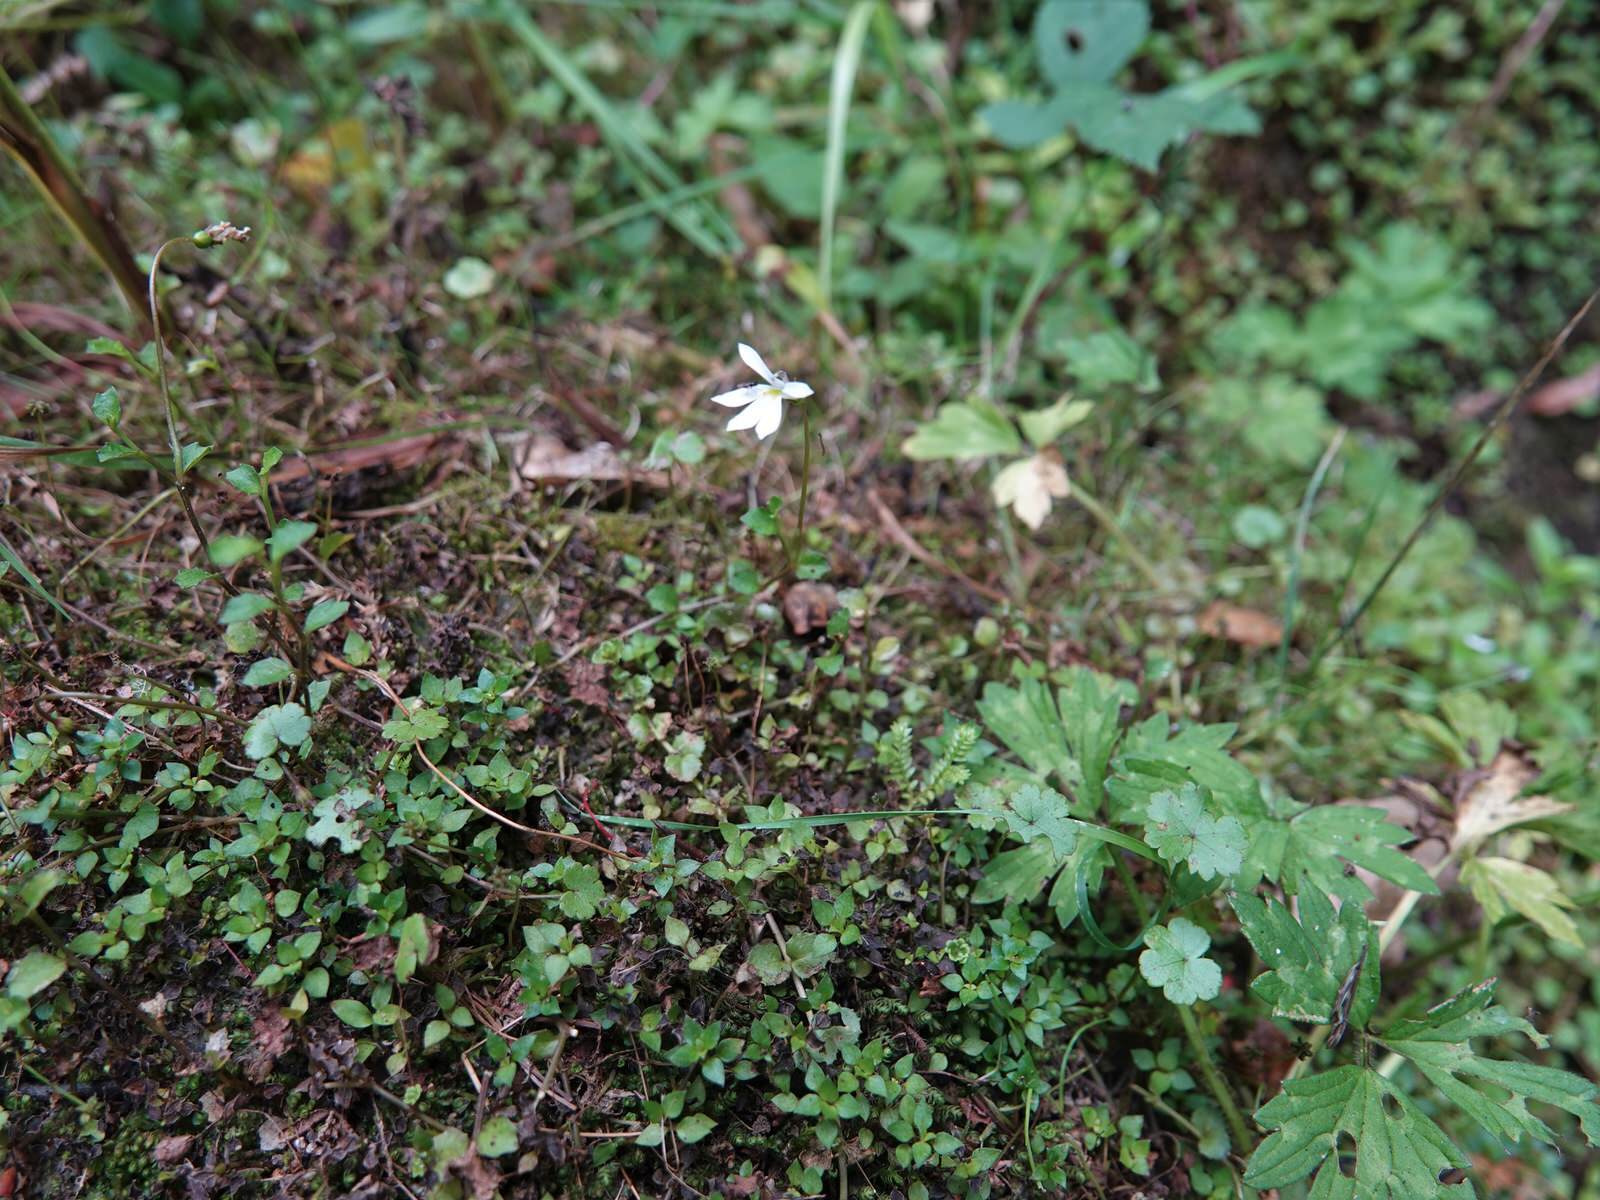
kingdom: Plantae
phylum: Tracheophyta
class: Magnoliopsida
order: Asterales
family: Campanulaceae
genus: Lobelia
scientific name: Lobelia angulata
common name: Lawn lobelia
